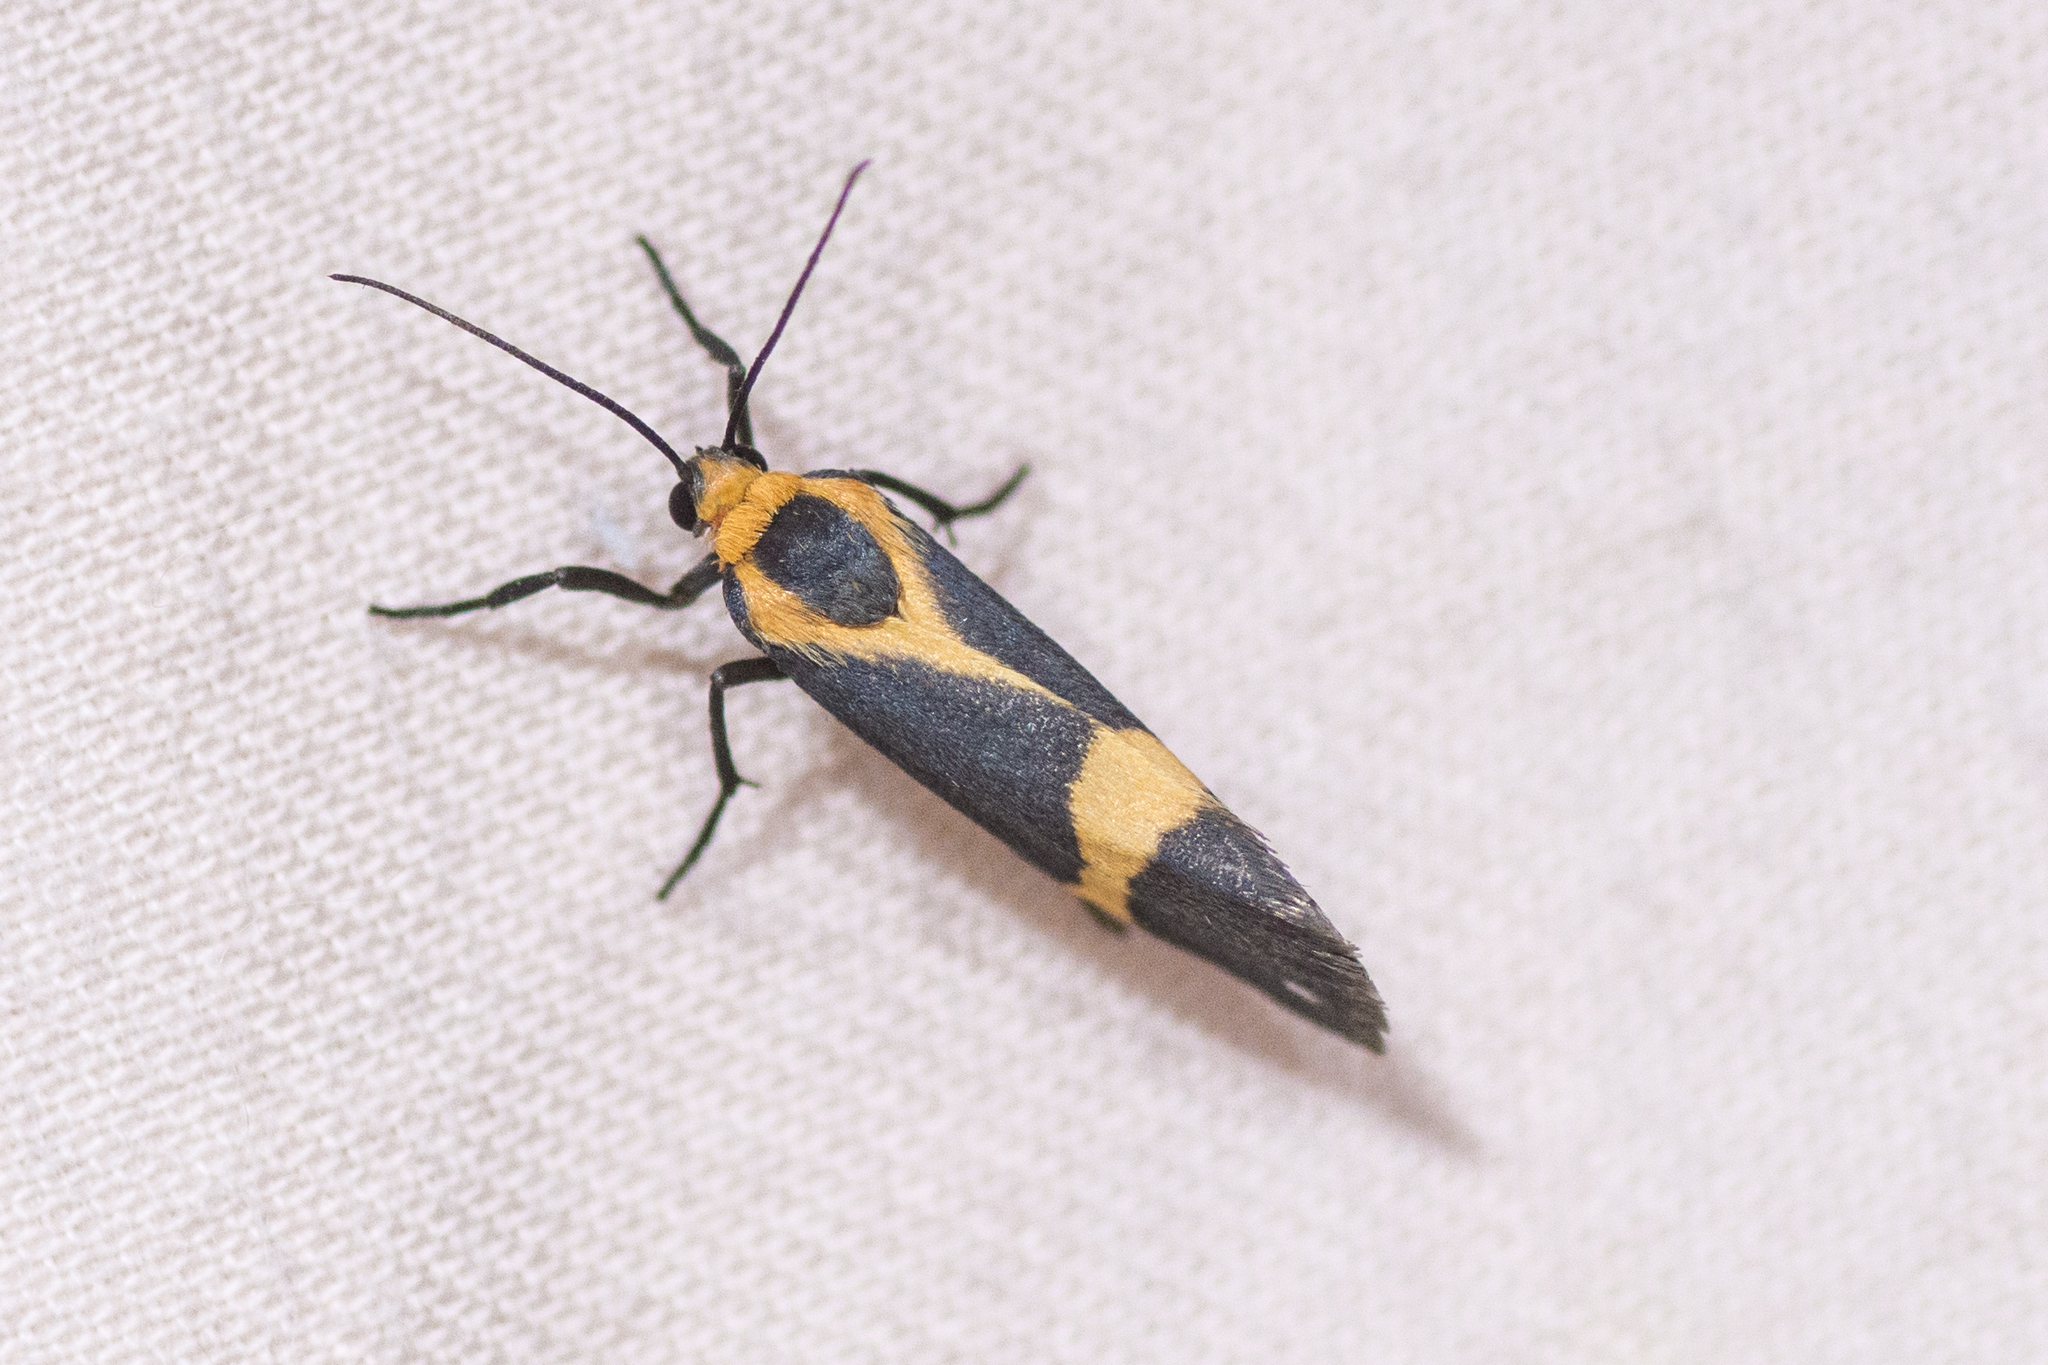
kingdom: Animalia
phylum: Arthropoda
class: Insecta
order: Lepidoptera
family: Erebidae
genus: Cisthene
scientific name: Cisthene tenuifascia
